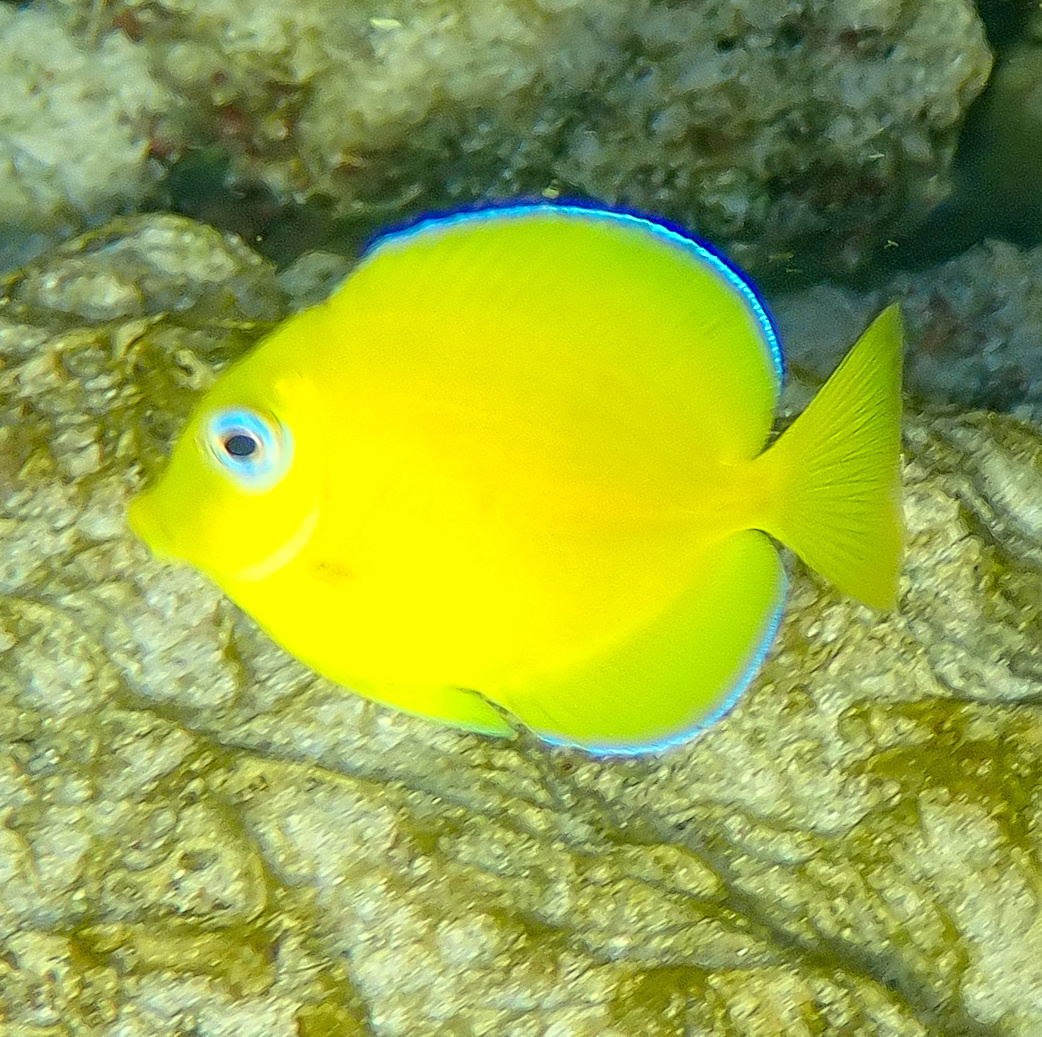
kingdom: Animalia
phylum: Chordata
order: Perciformes
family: Acanthuridae
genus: Acanthurus
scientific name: Acanthurus coeruleus
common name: Blue tang
